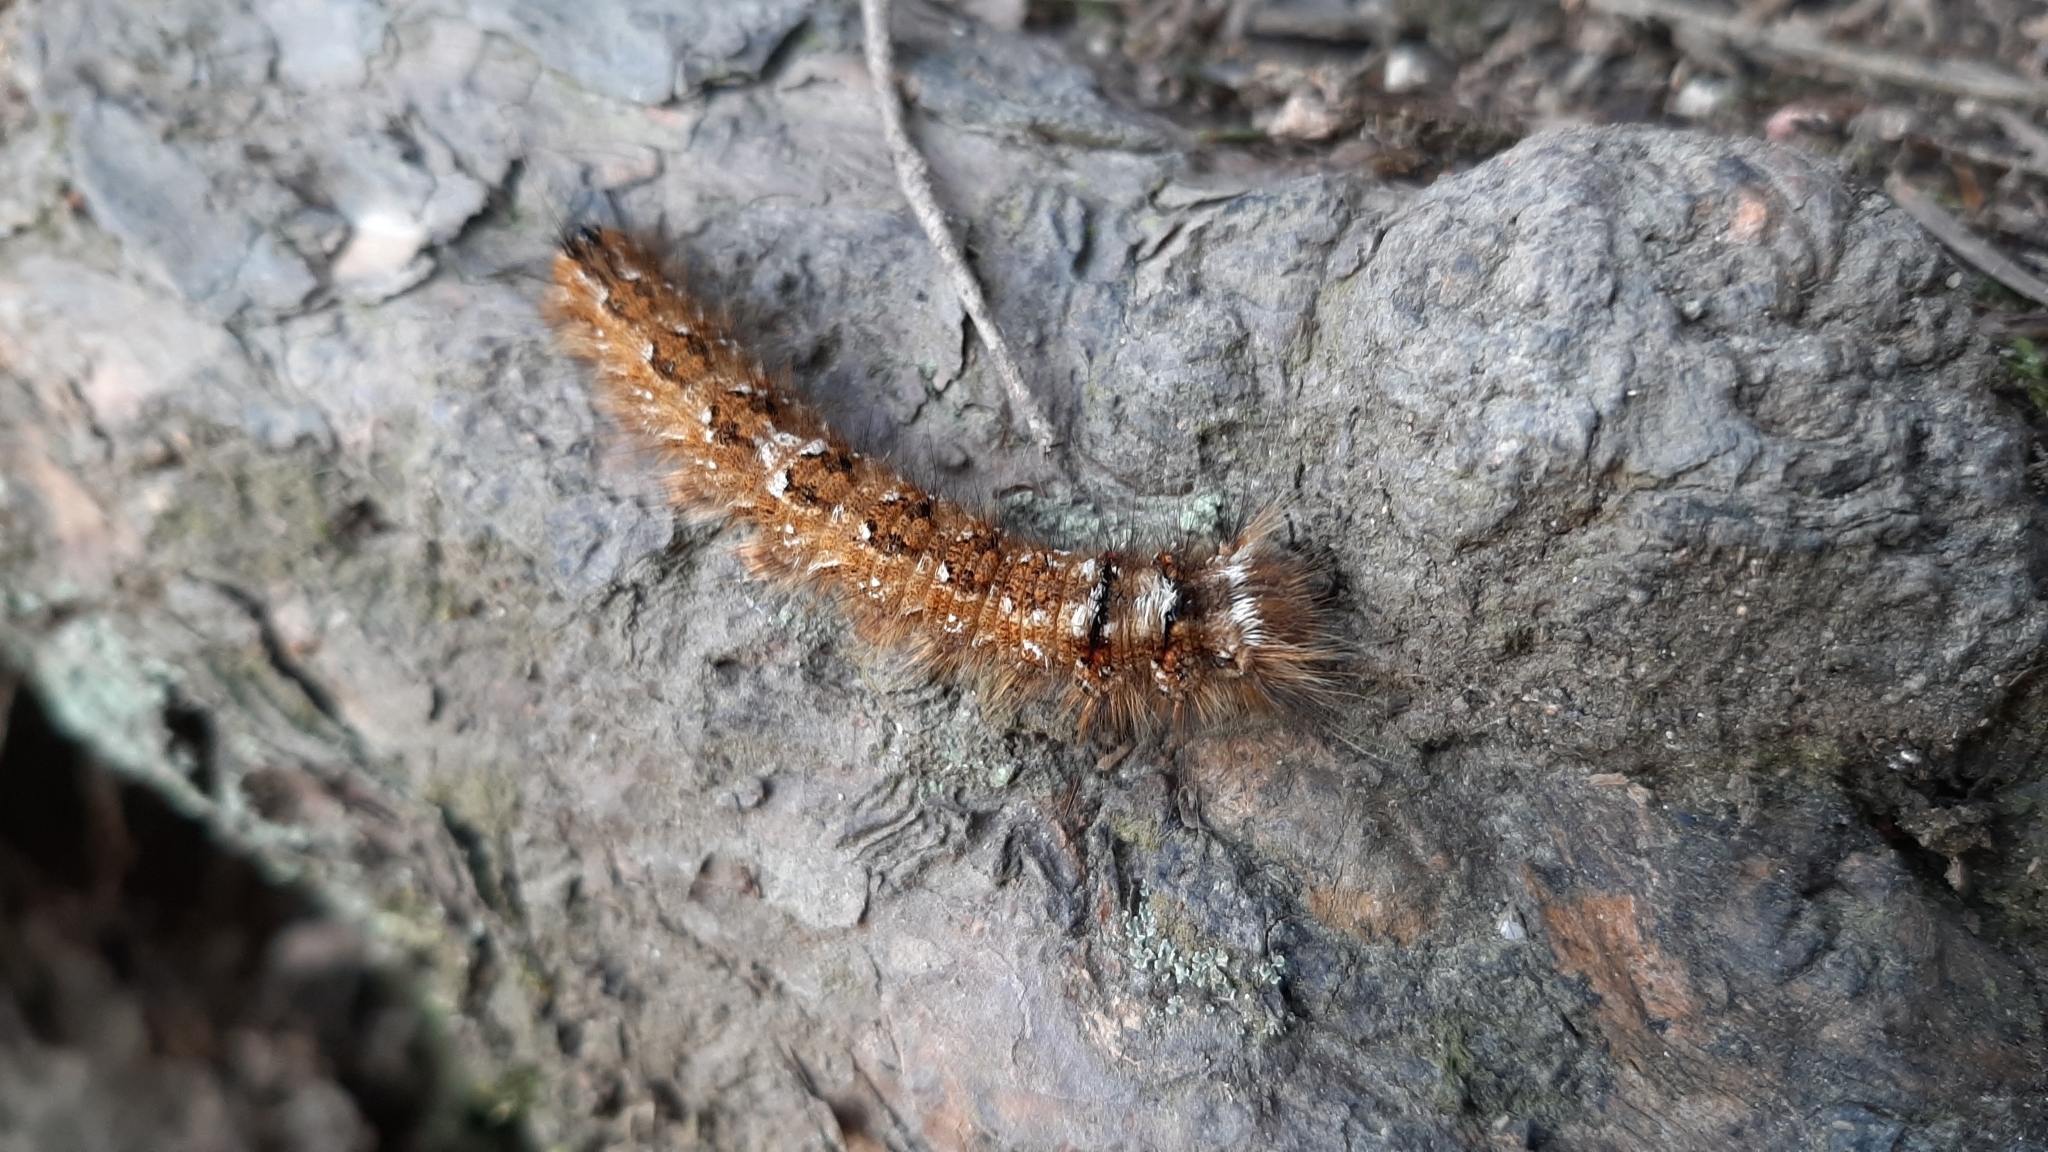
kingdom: Animalia
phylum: Arthropoda
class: Insecta
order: Lepidoptera
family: Lasiocampidae
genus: Dendrolimus
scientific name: Dendrolimus pini
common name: Pine-tree lappet
